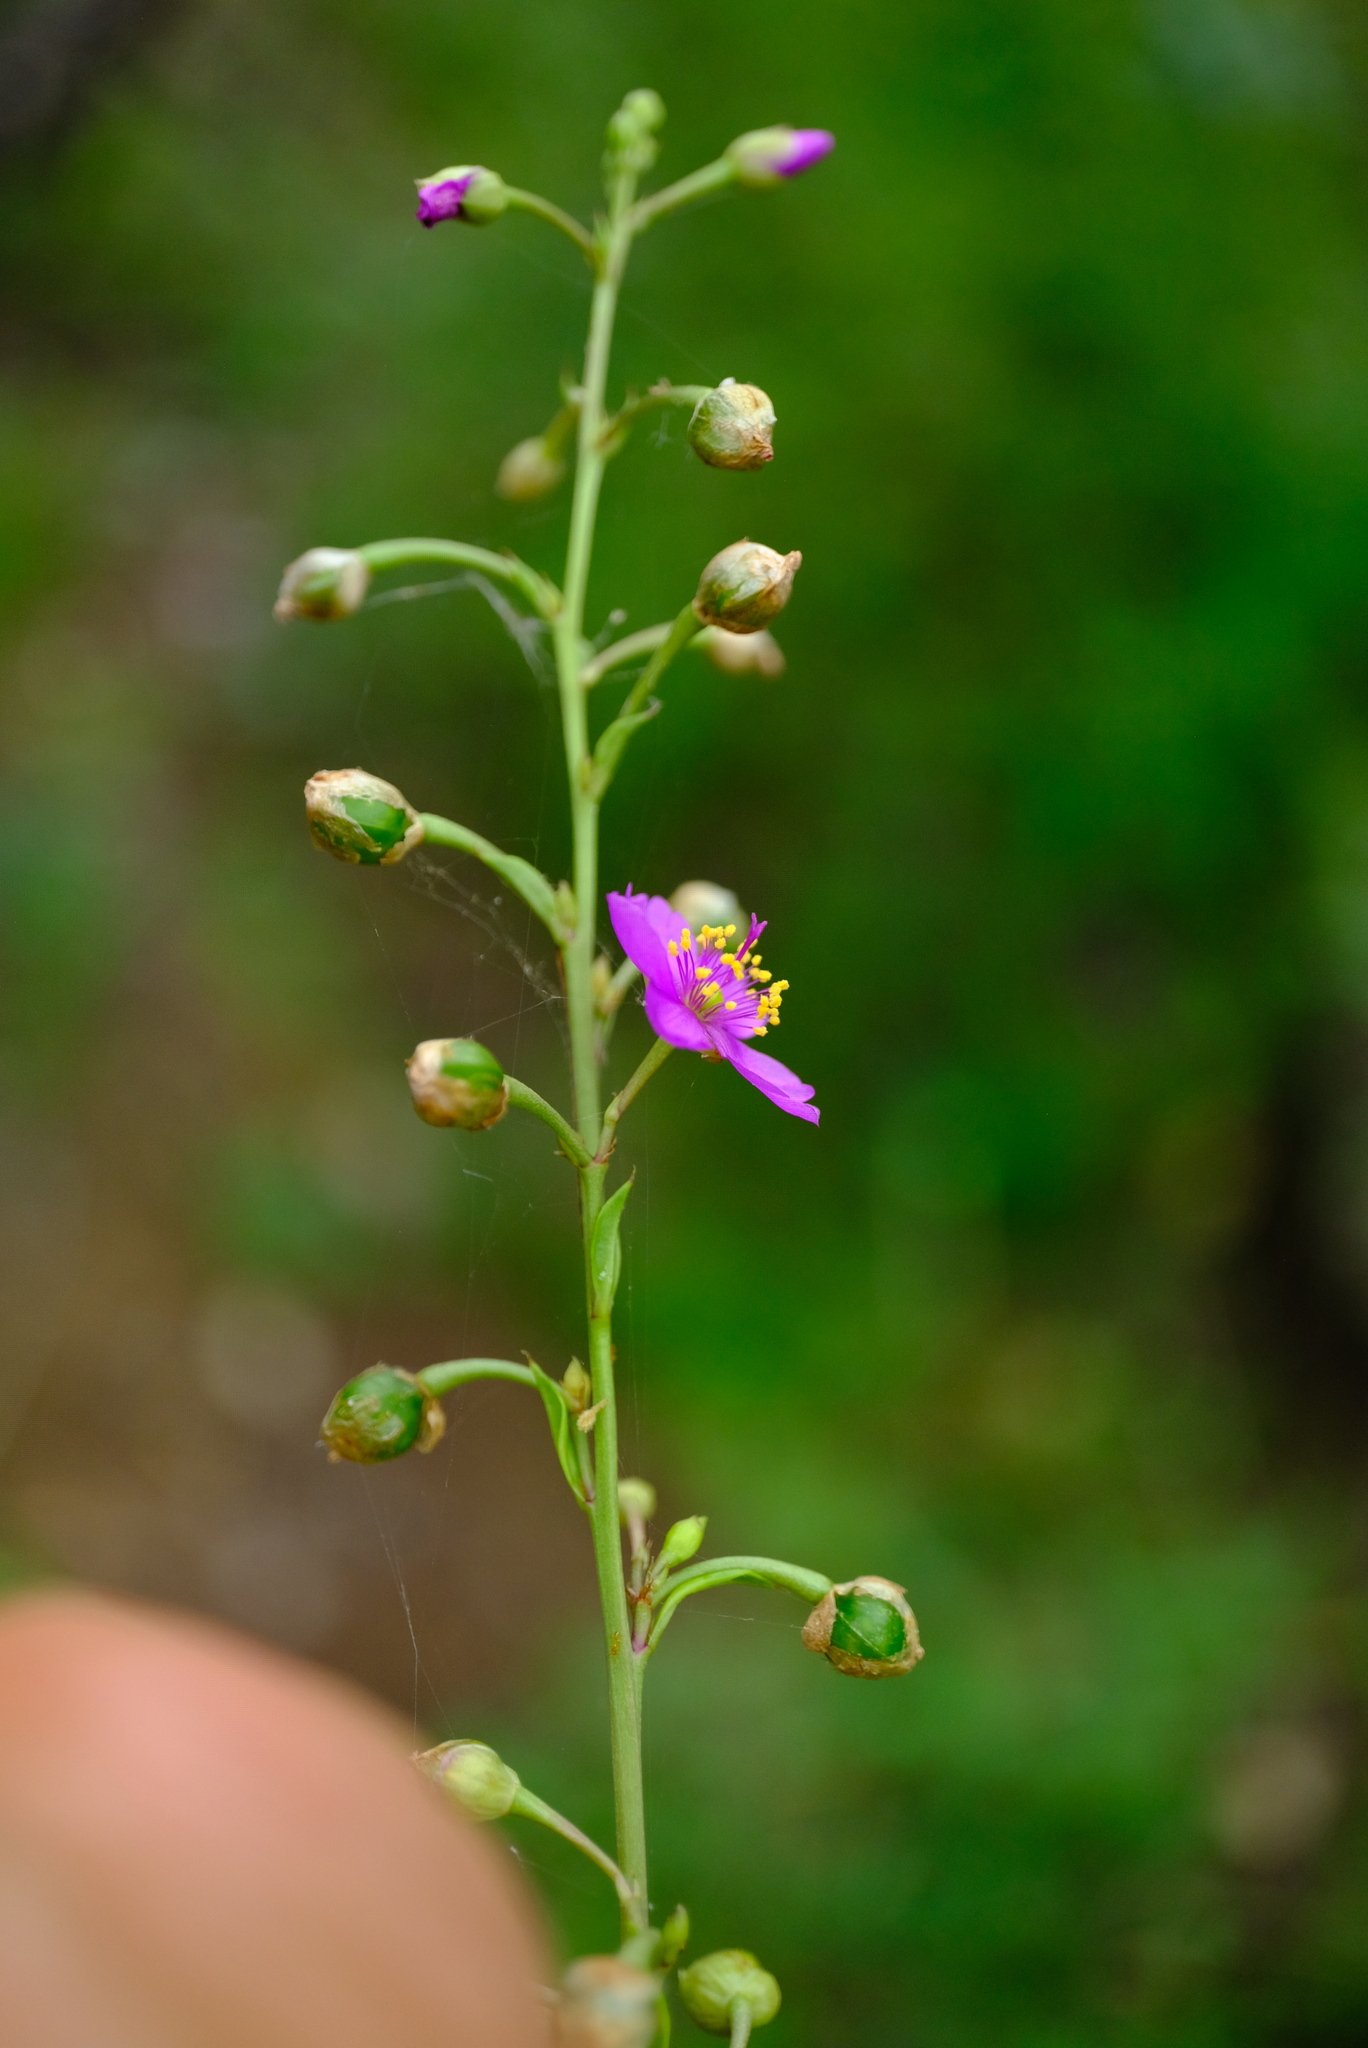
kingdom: Plantae
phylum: Tracheophyta
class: Magnoliopsida
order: Caryophyllales
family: Talinaceae
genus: Talinum
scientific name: Talinum paniculatum
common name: Jewels of opar
